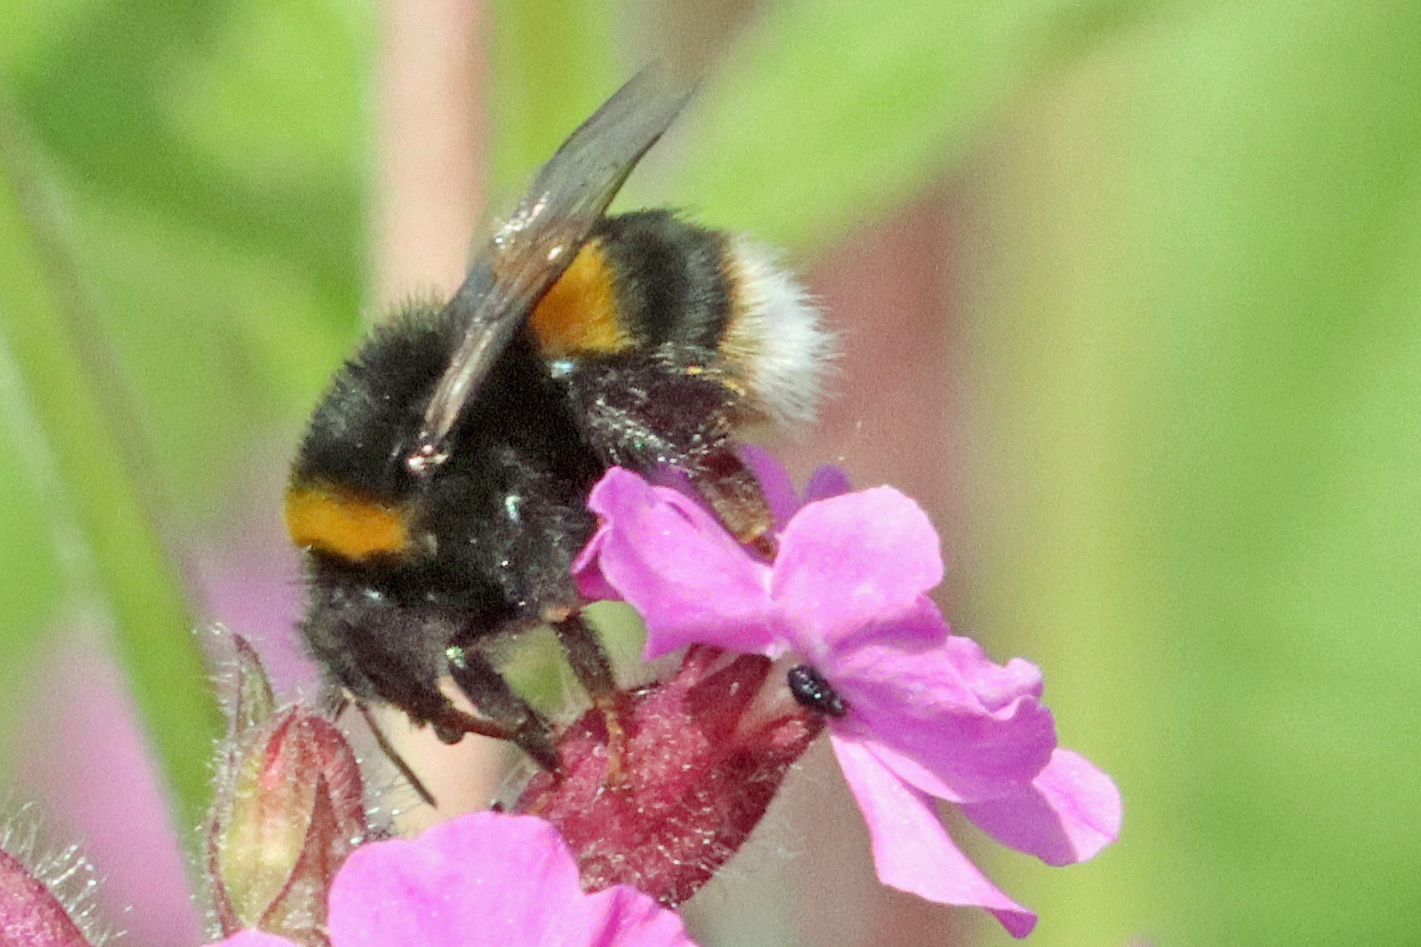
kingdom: Animalia
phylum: Arthropoda
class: Insecta
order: Hymenoptera
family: Apidae
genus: Bombus
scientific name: Bombus terrestris
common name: Buff-tailed bumblebee
